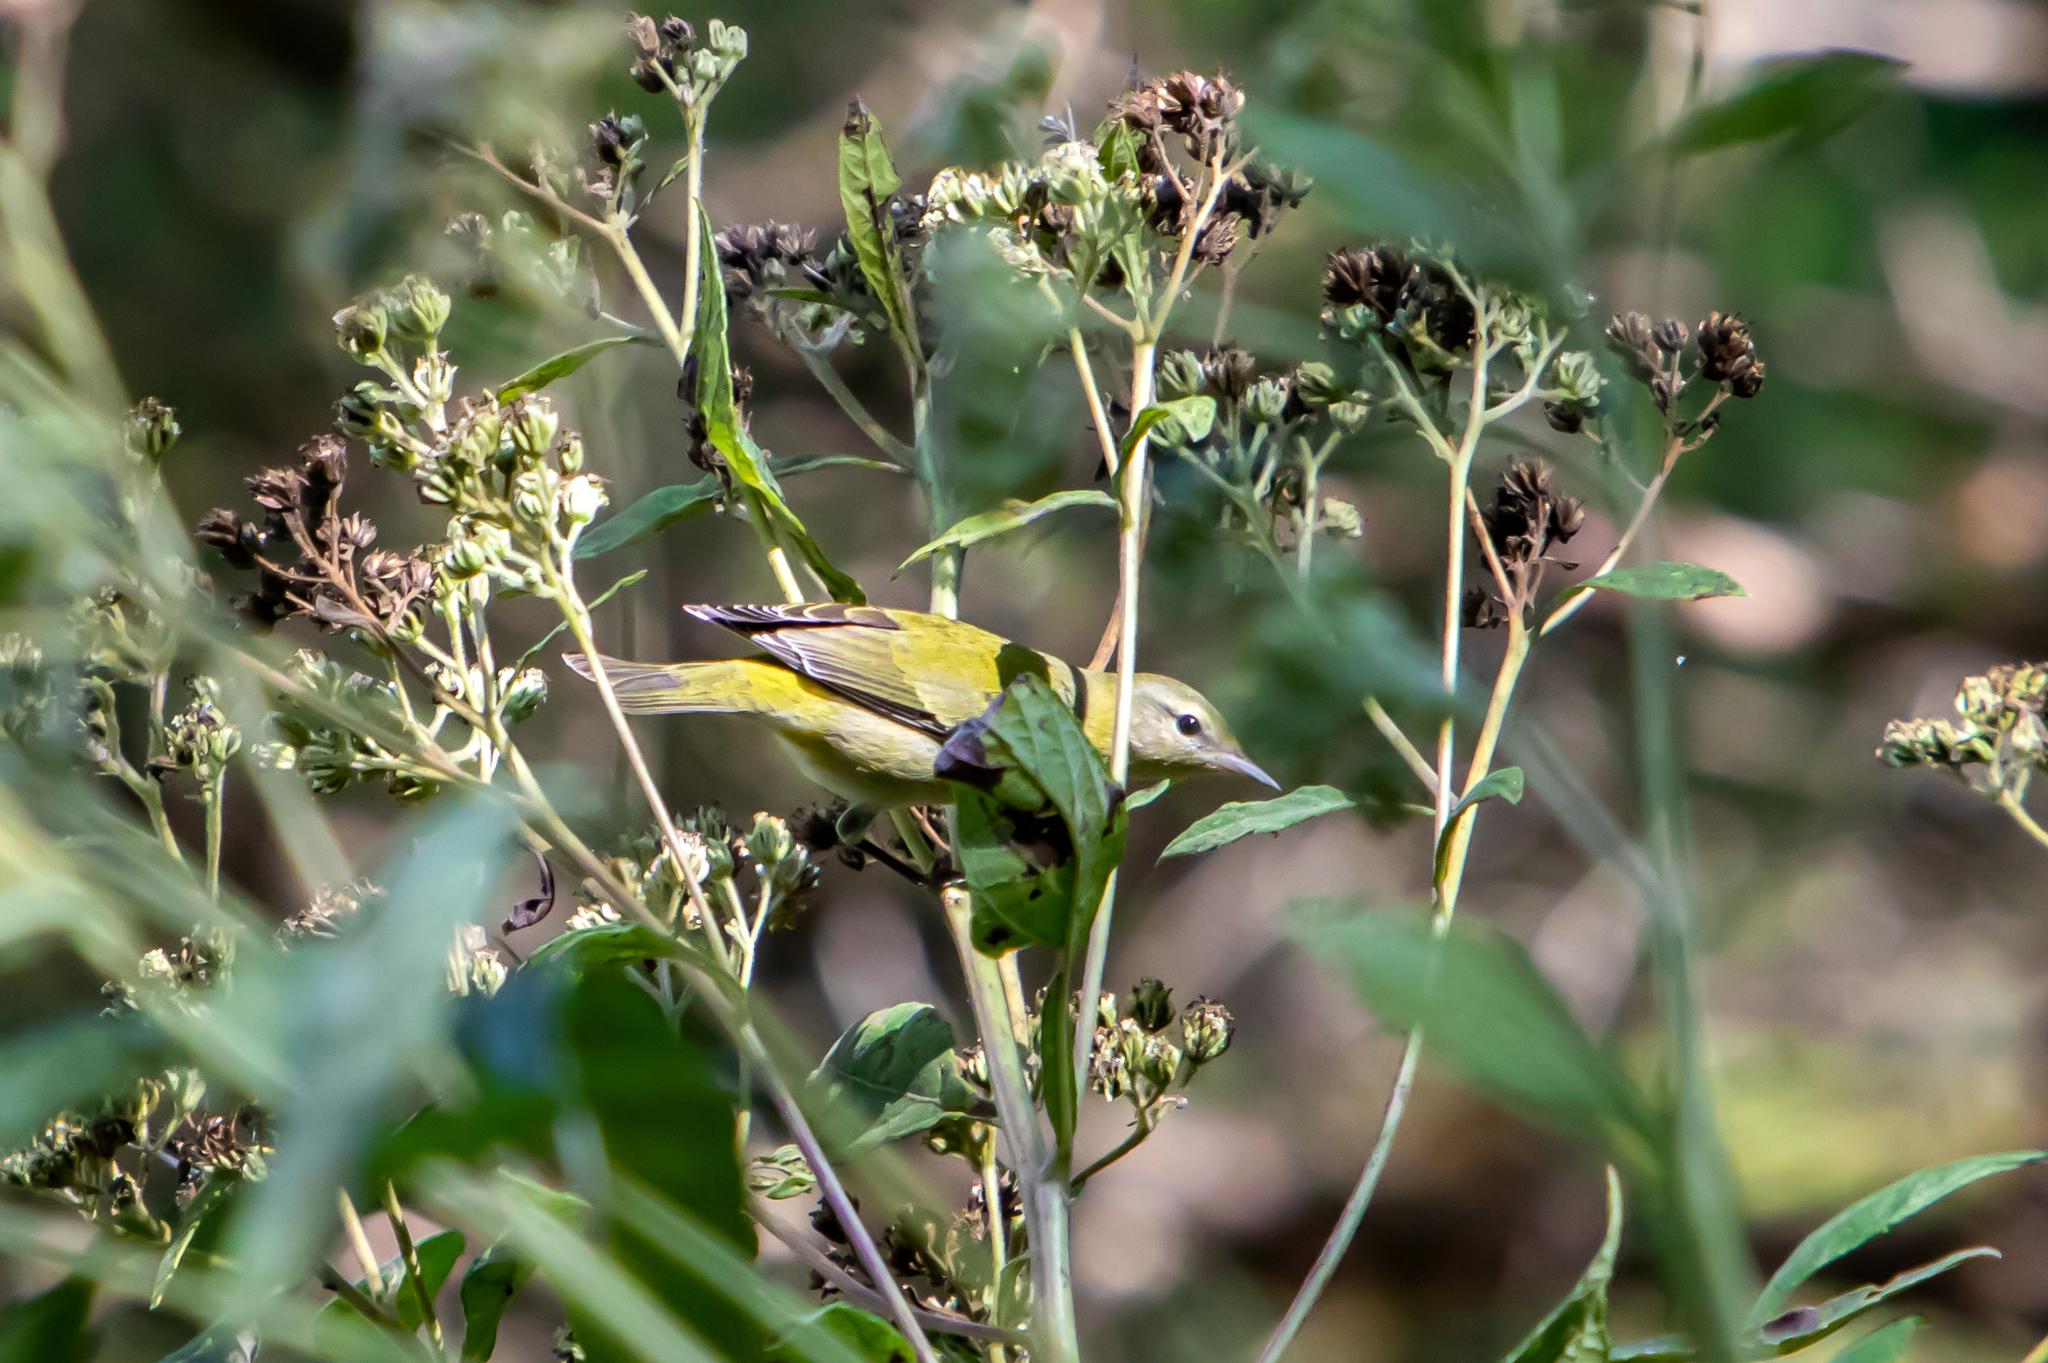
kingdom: Animalia
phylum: Chordata
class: Aves
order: Passeriformes
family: Parulidae
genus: Leiothlypis
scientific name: Leiothlypis peregrina
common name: Tennessee warbler
